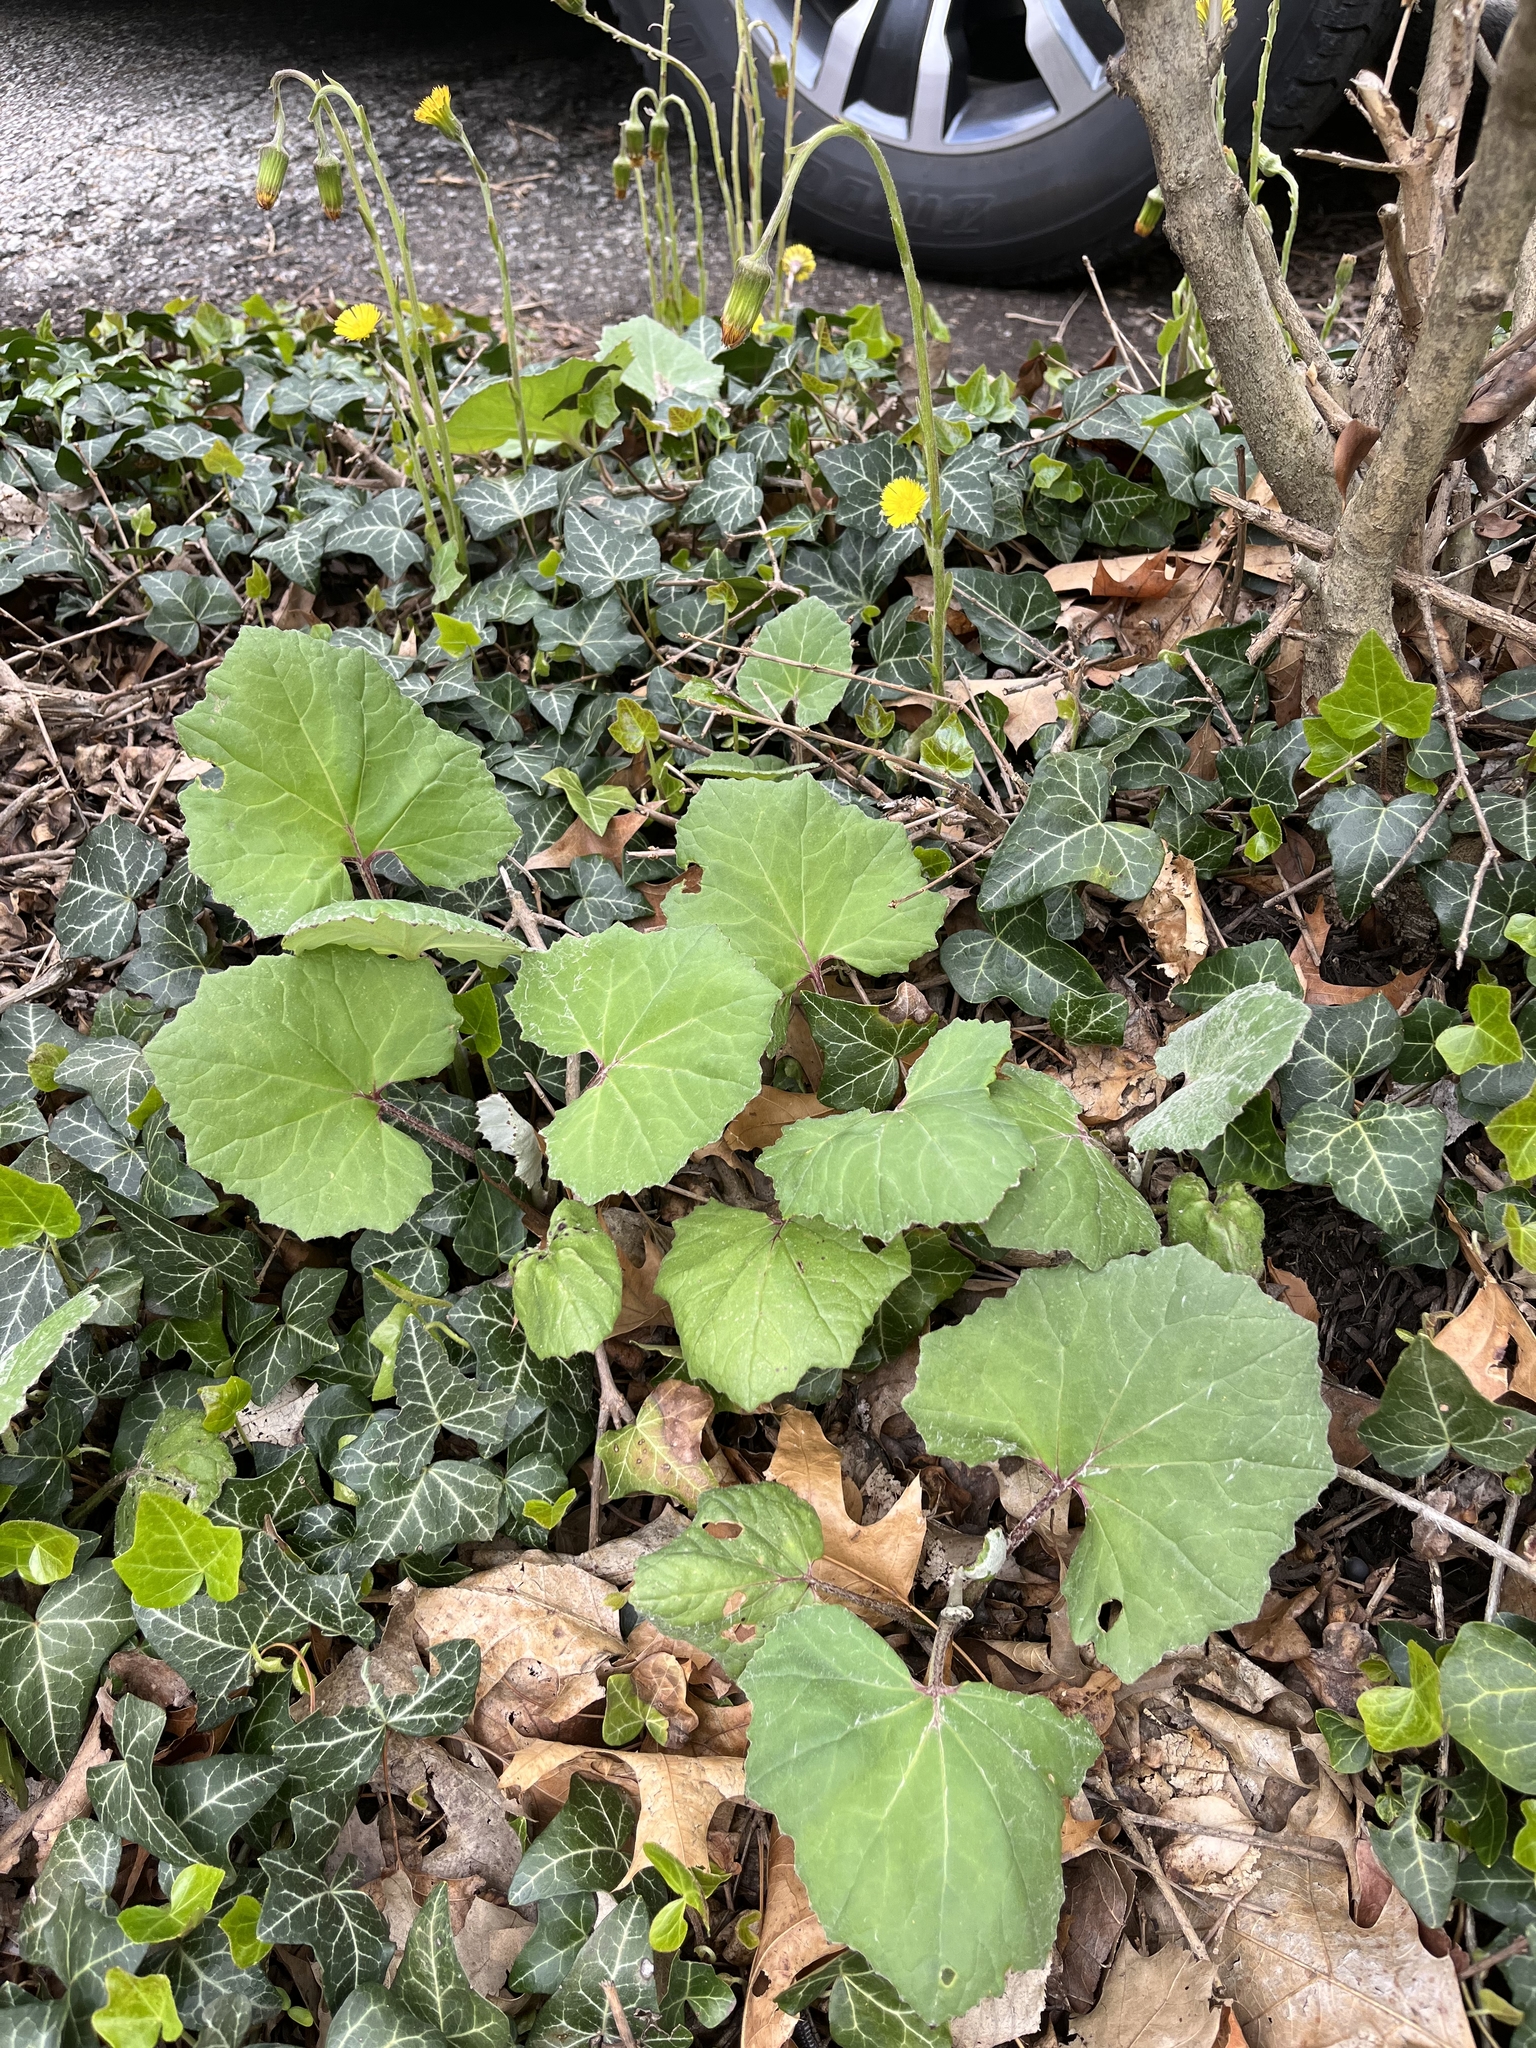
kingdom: Plantae
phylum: Tracheophyta
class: Magnoliopsida
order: Asterales
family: Asteraceae
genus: Tussilago
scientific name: Tussilago farfara
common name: Coltsfoot
